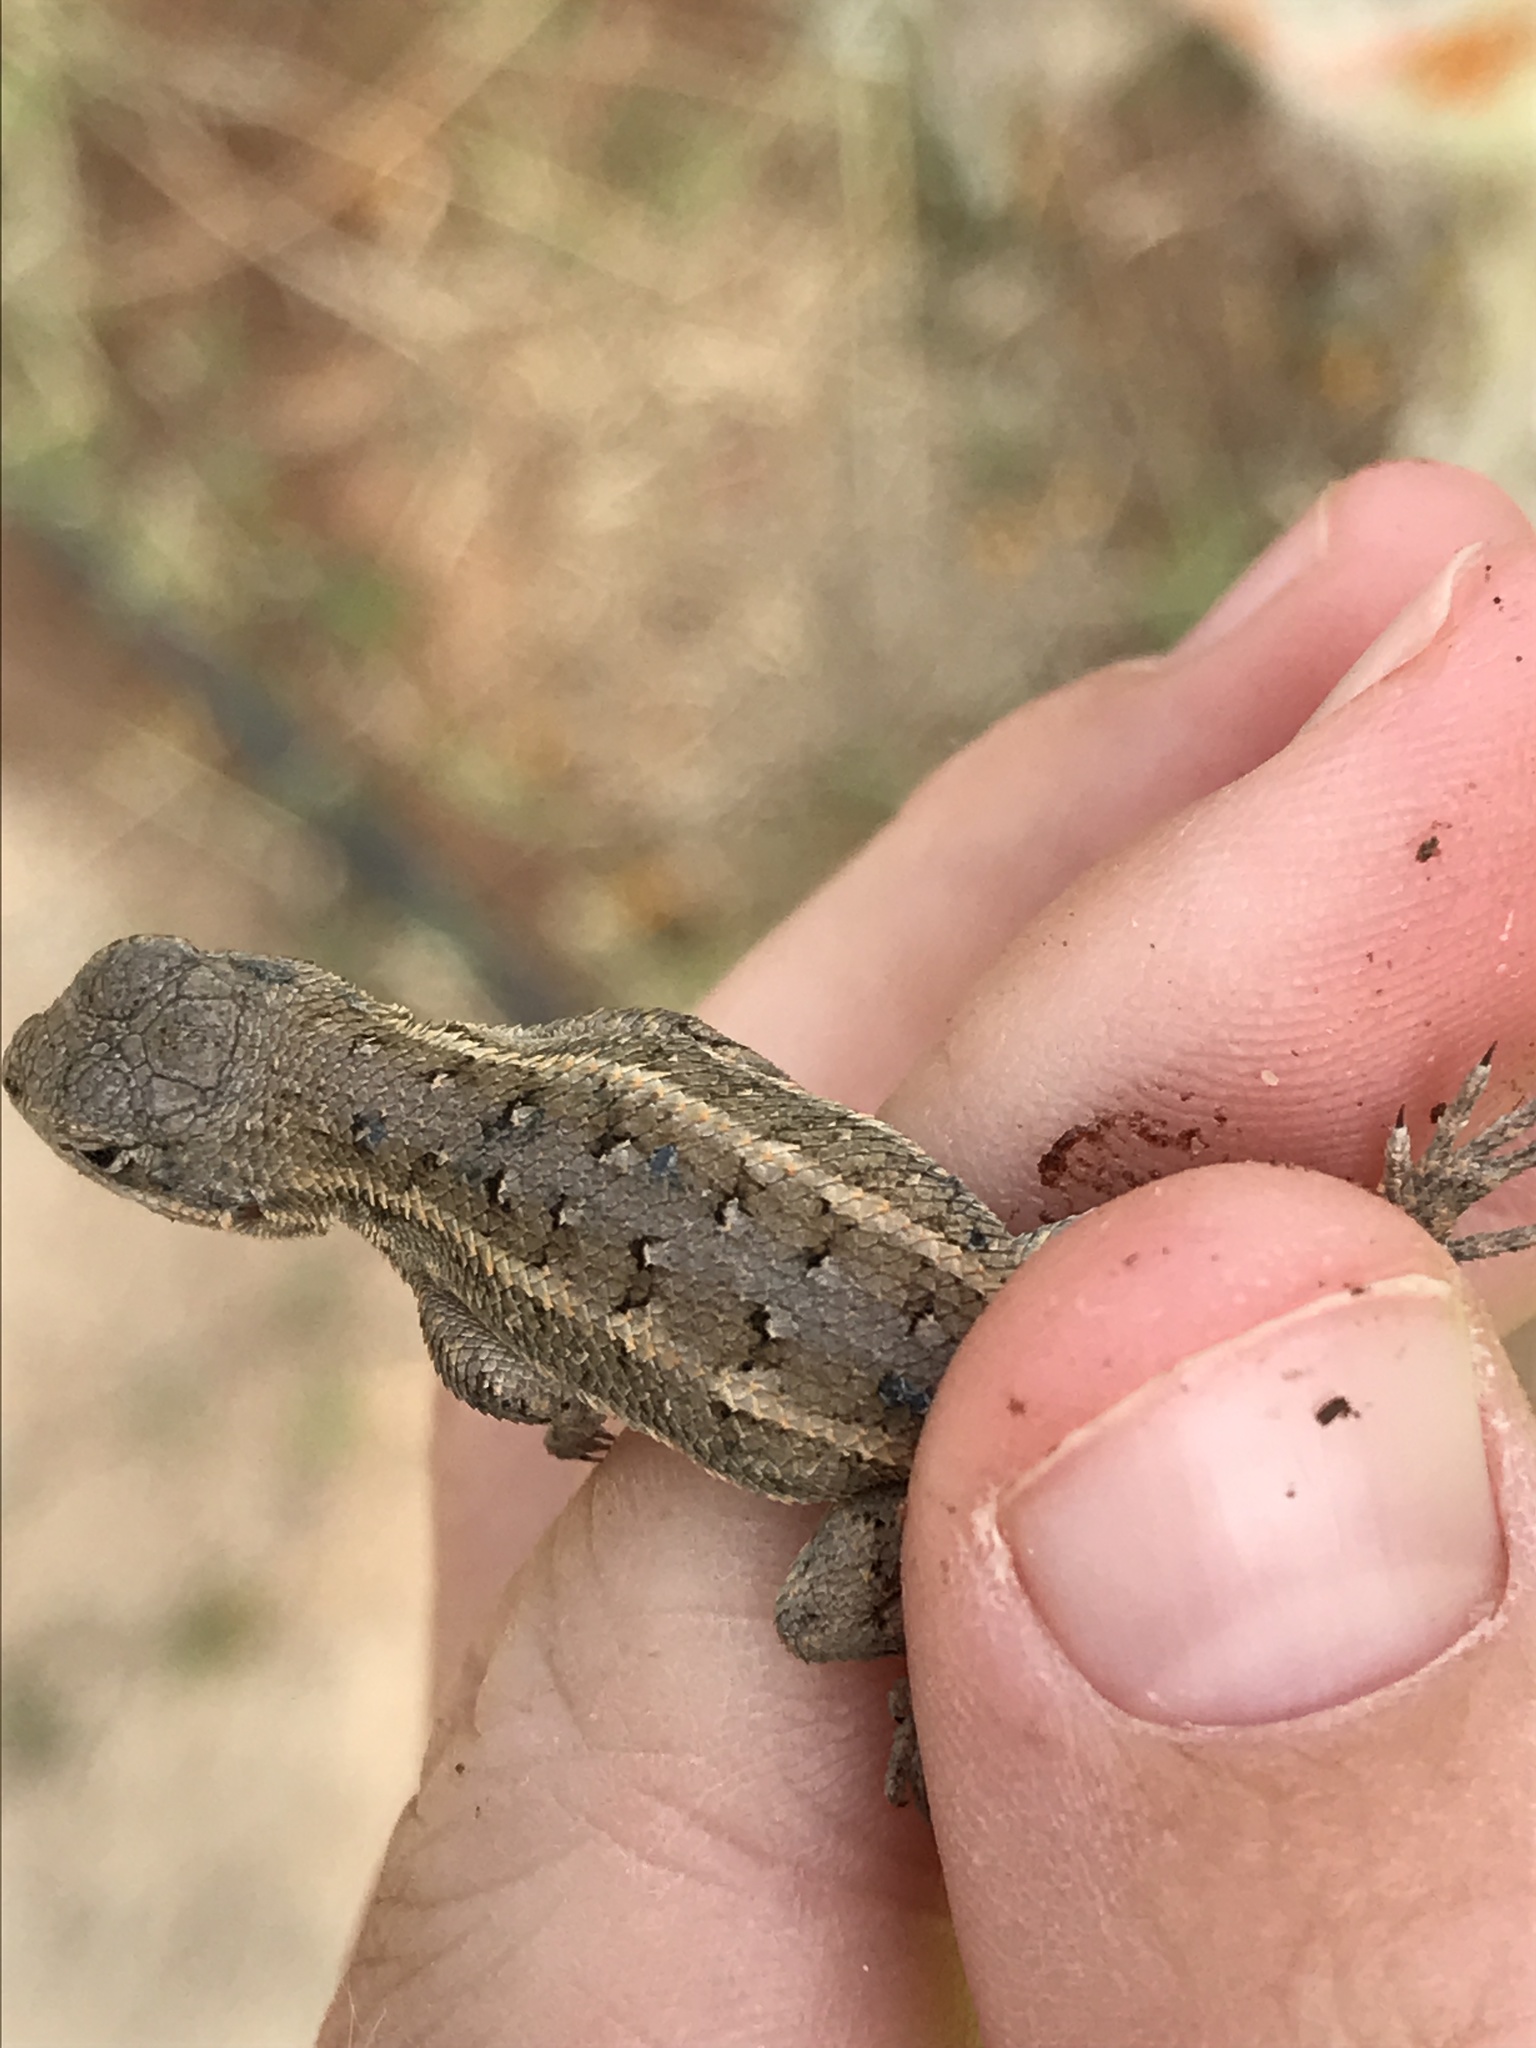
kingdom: Animalia
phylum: Chordata
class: Squamata
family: Phrynosomatidae
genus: Sceloporus
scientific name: Sceloporus consobrinus
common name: Southern prairie lizard
